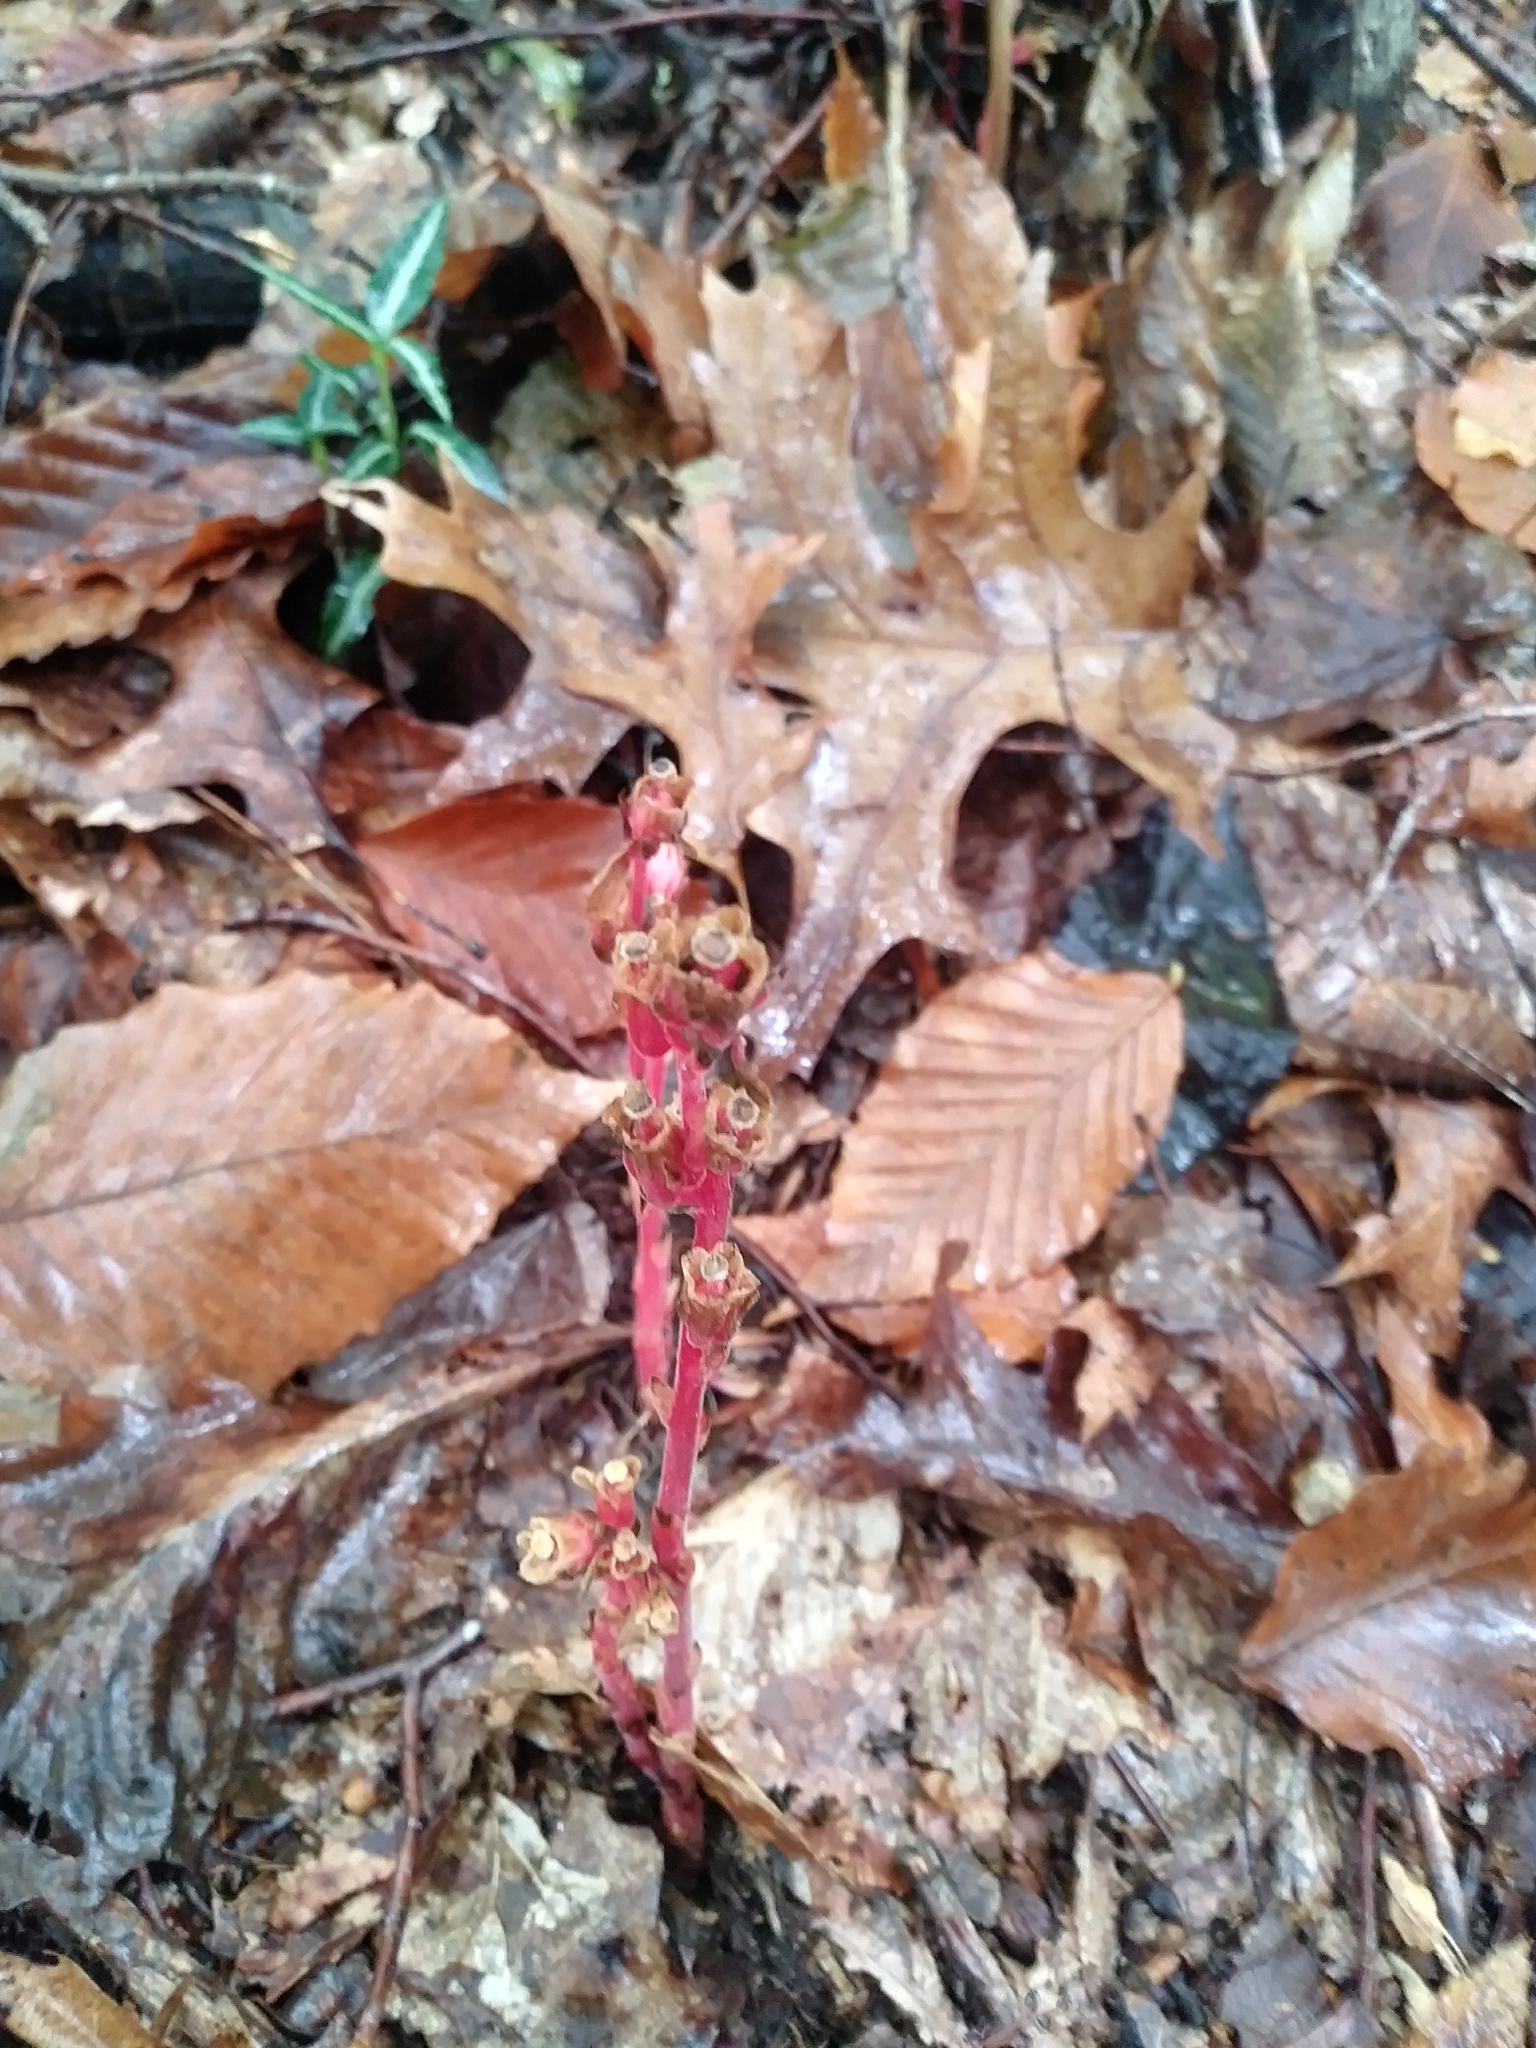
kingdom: Plantae
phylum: Tracheophyta
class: Magnoliopsida
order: Ericales
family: Ericaceae
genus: Hypopitys
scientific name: Hypopitys monotropa
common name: Yellow bird's-nest
